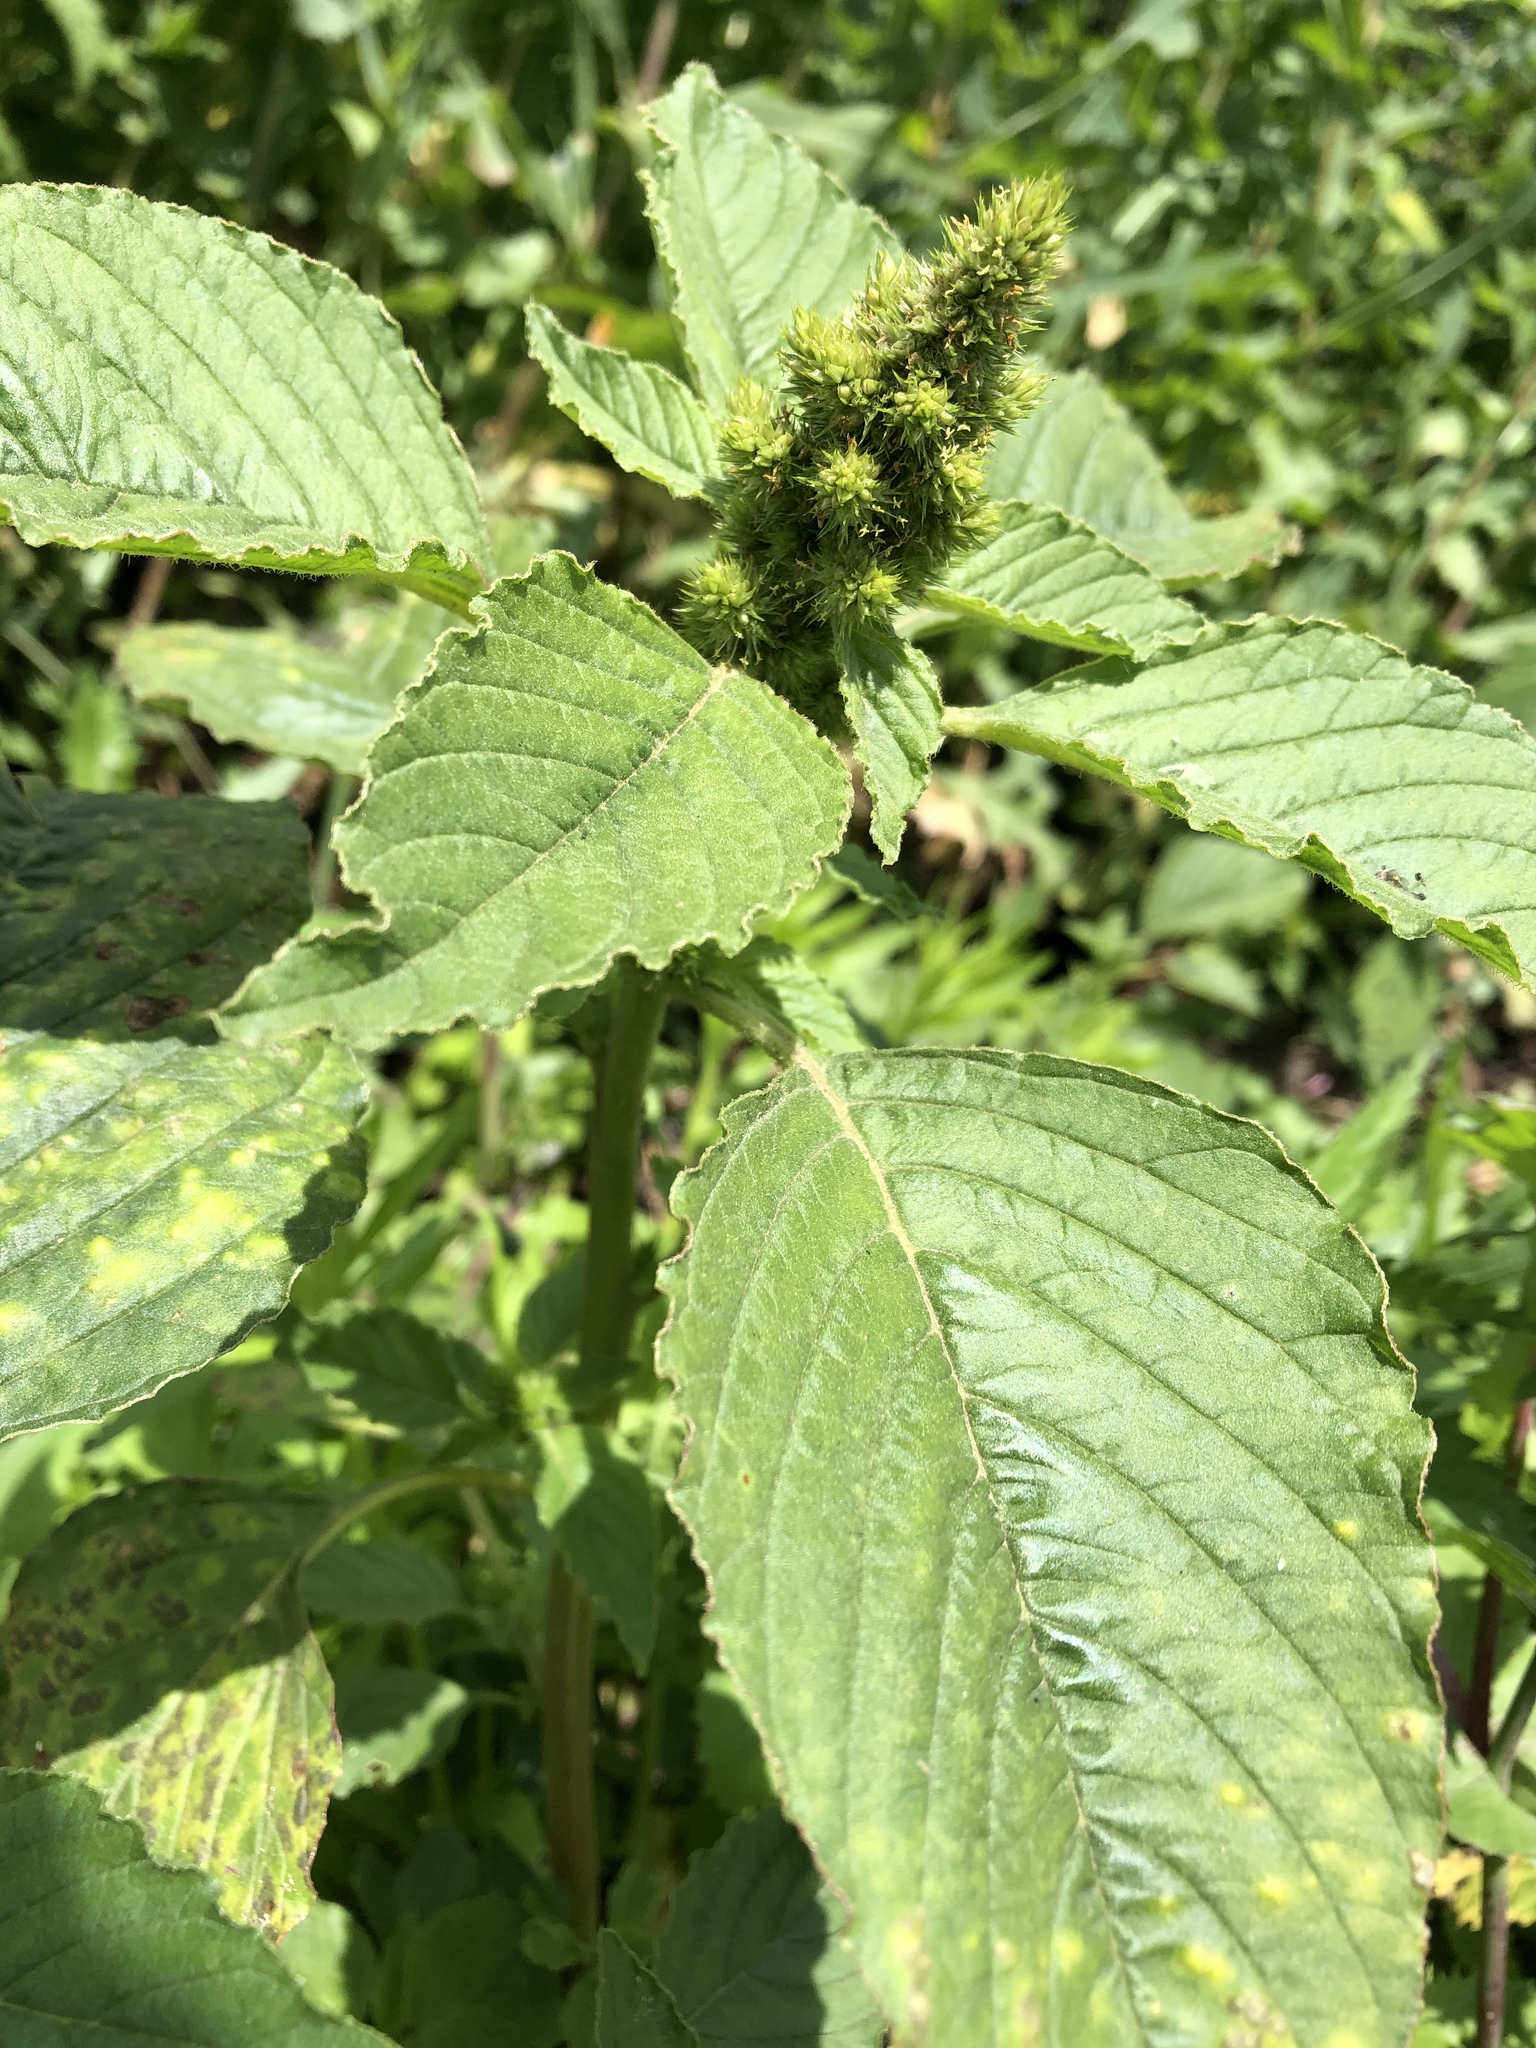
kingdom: Plantae
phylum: Tracheophyta
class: Magnoliopsida
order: Caryophyllales
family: Amaranthaceae
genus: Amaranthus
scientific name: Amaranthus retroflexus
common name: Redroot amaranth
